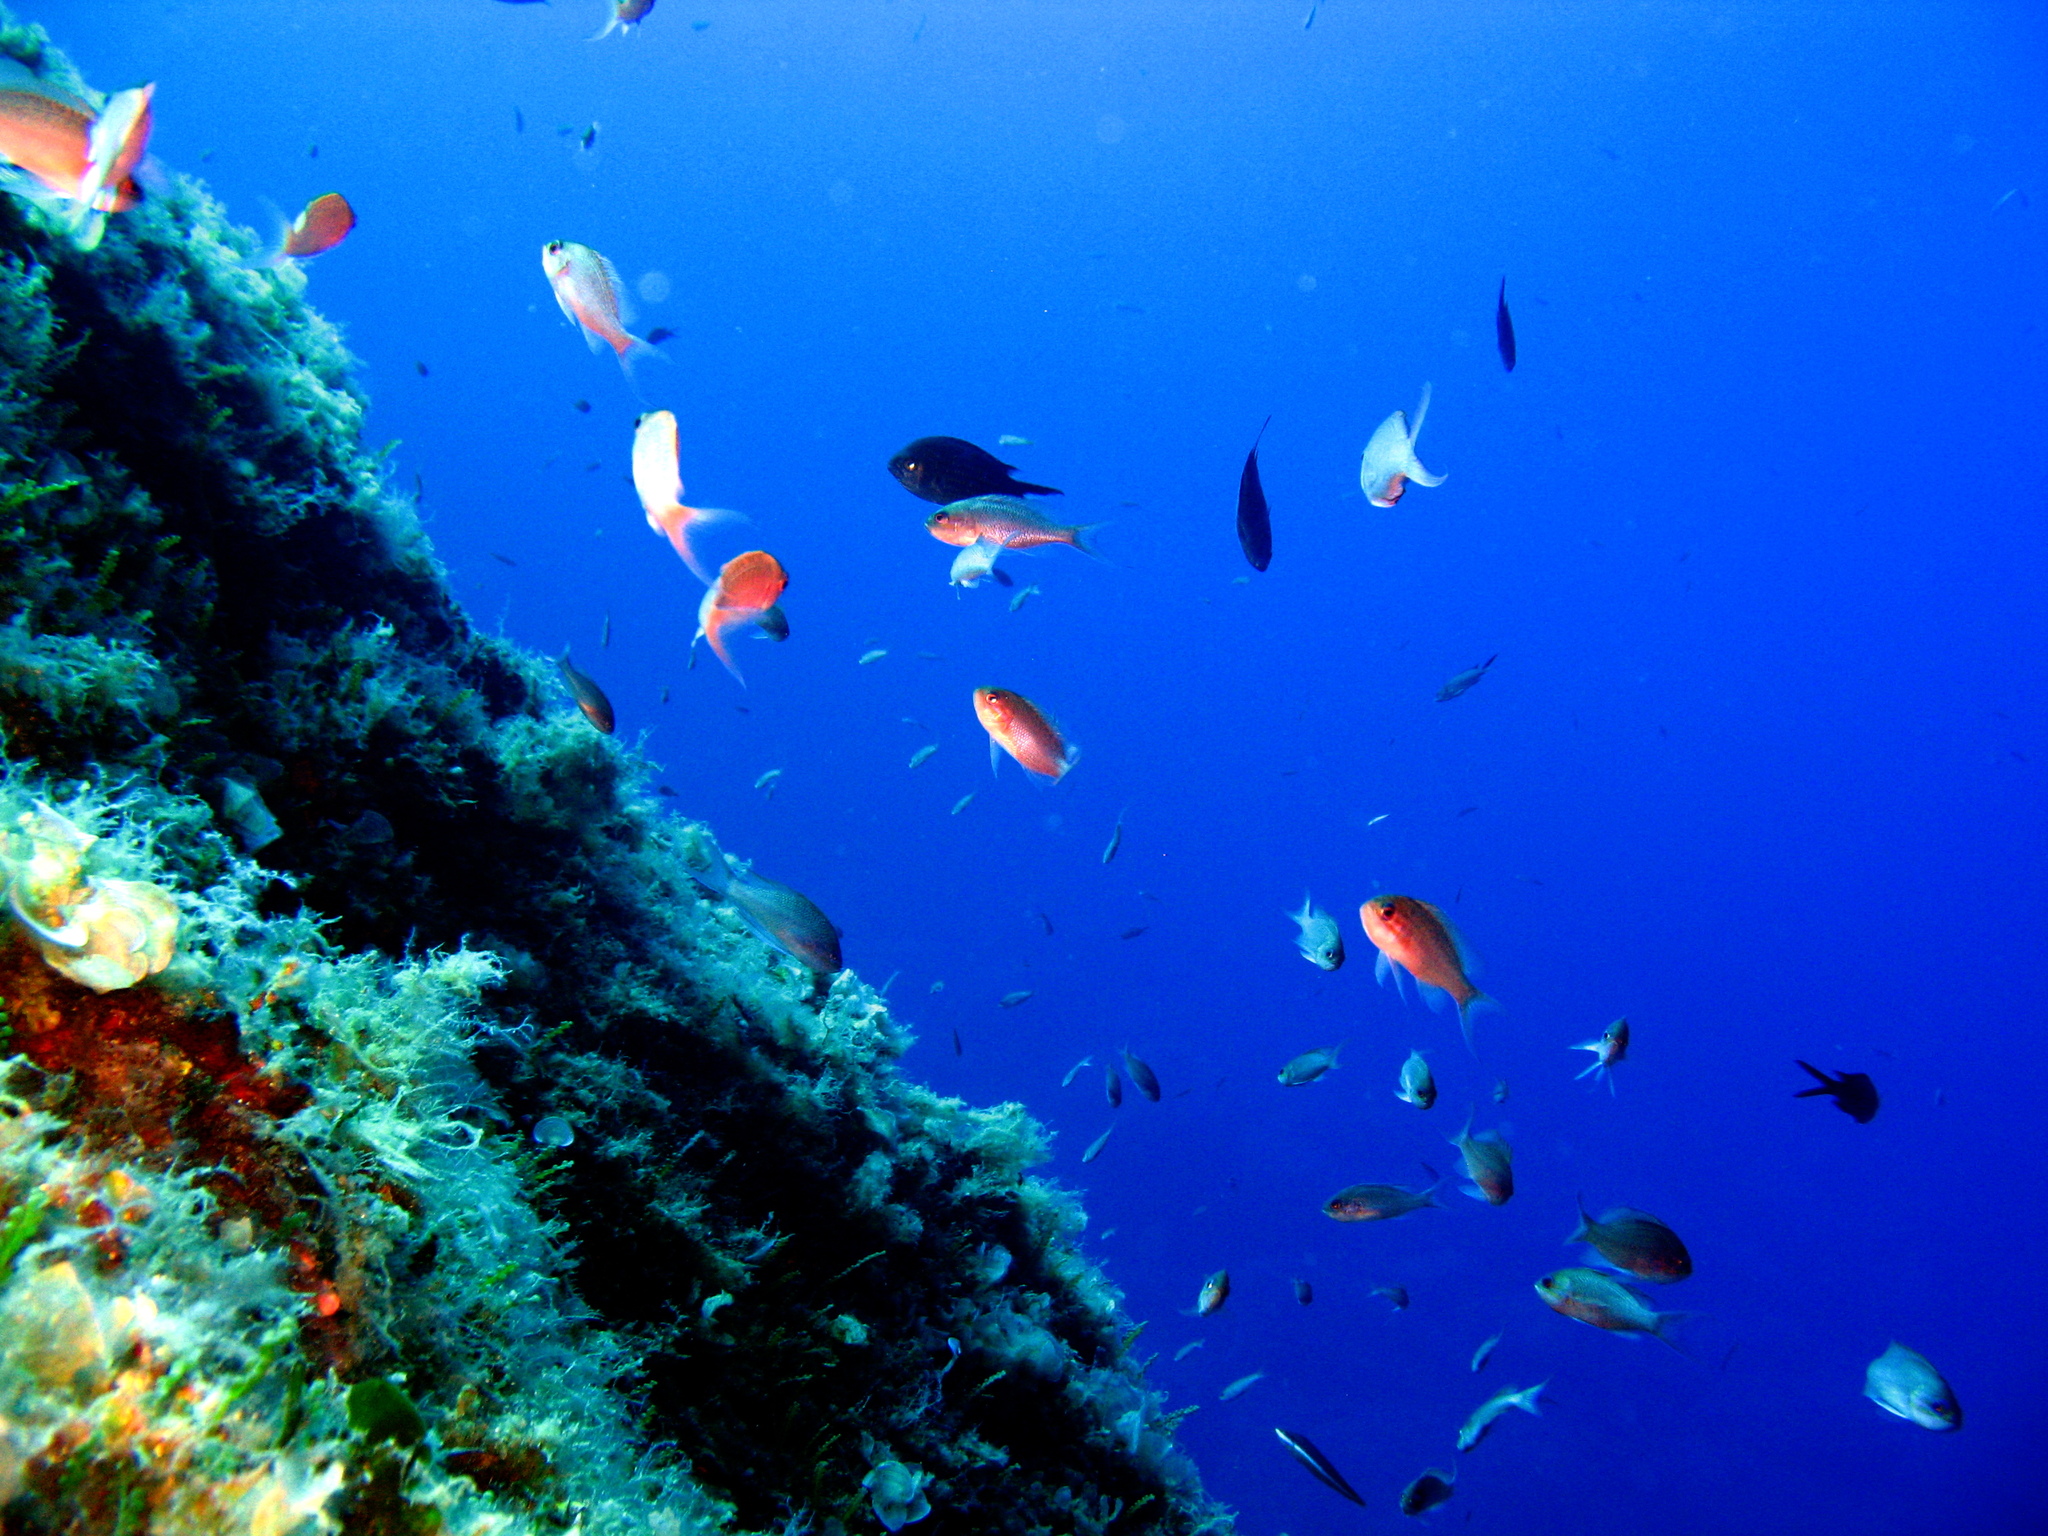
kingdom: Animalia
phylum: Chordata
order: Perciformes
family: Serranidae
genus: Anthias
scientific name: Anthias anthias
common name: Swallowtail seaperch
